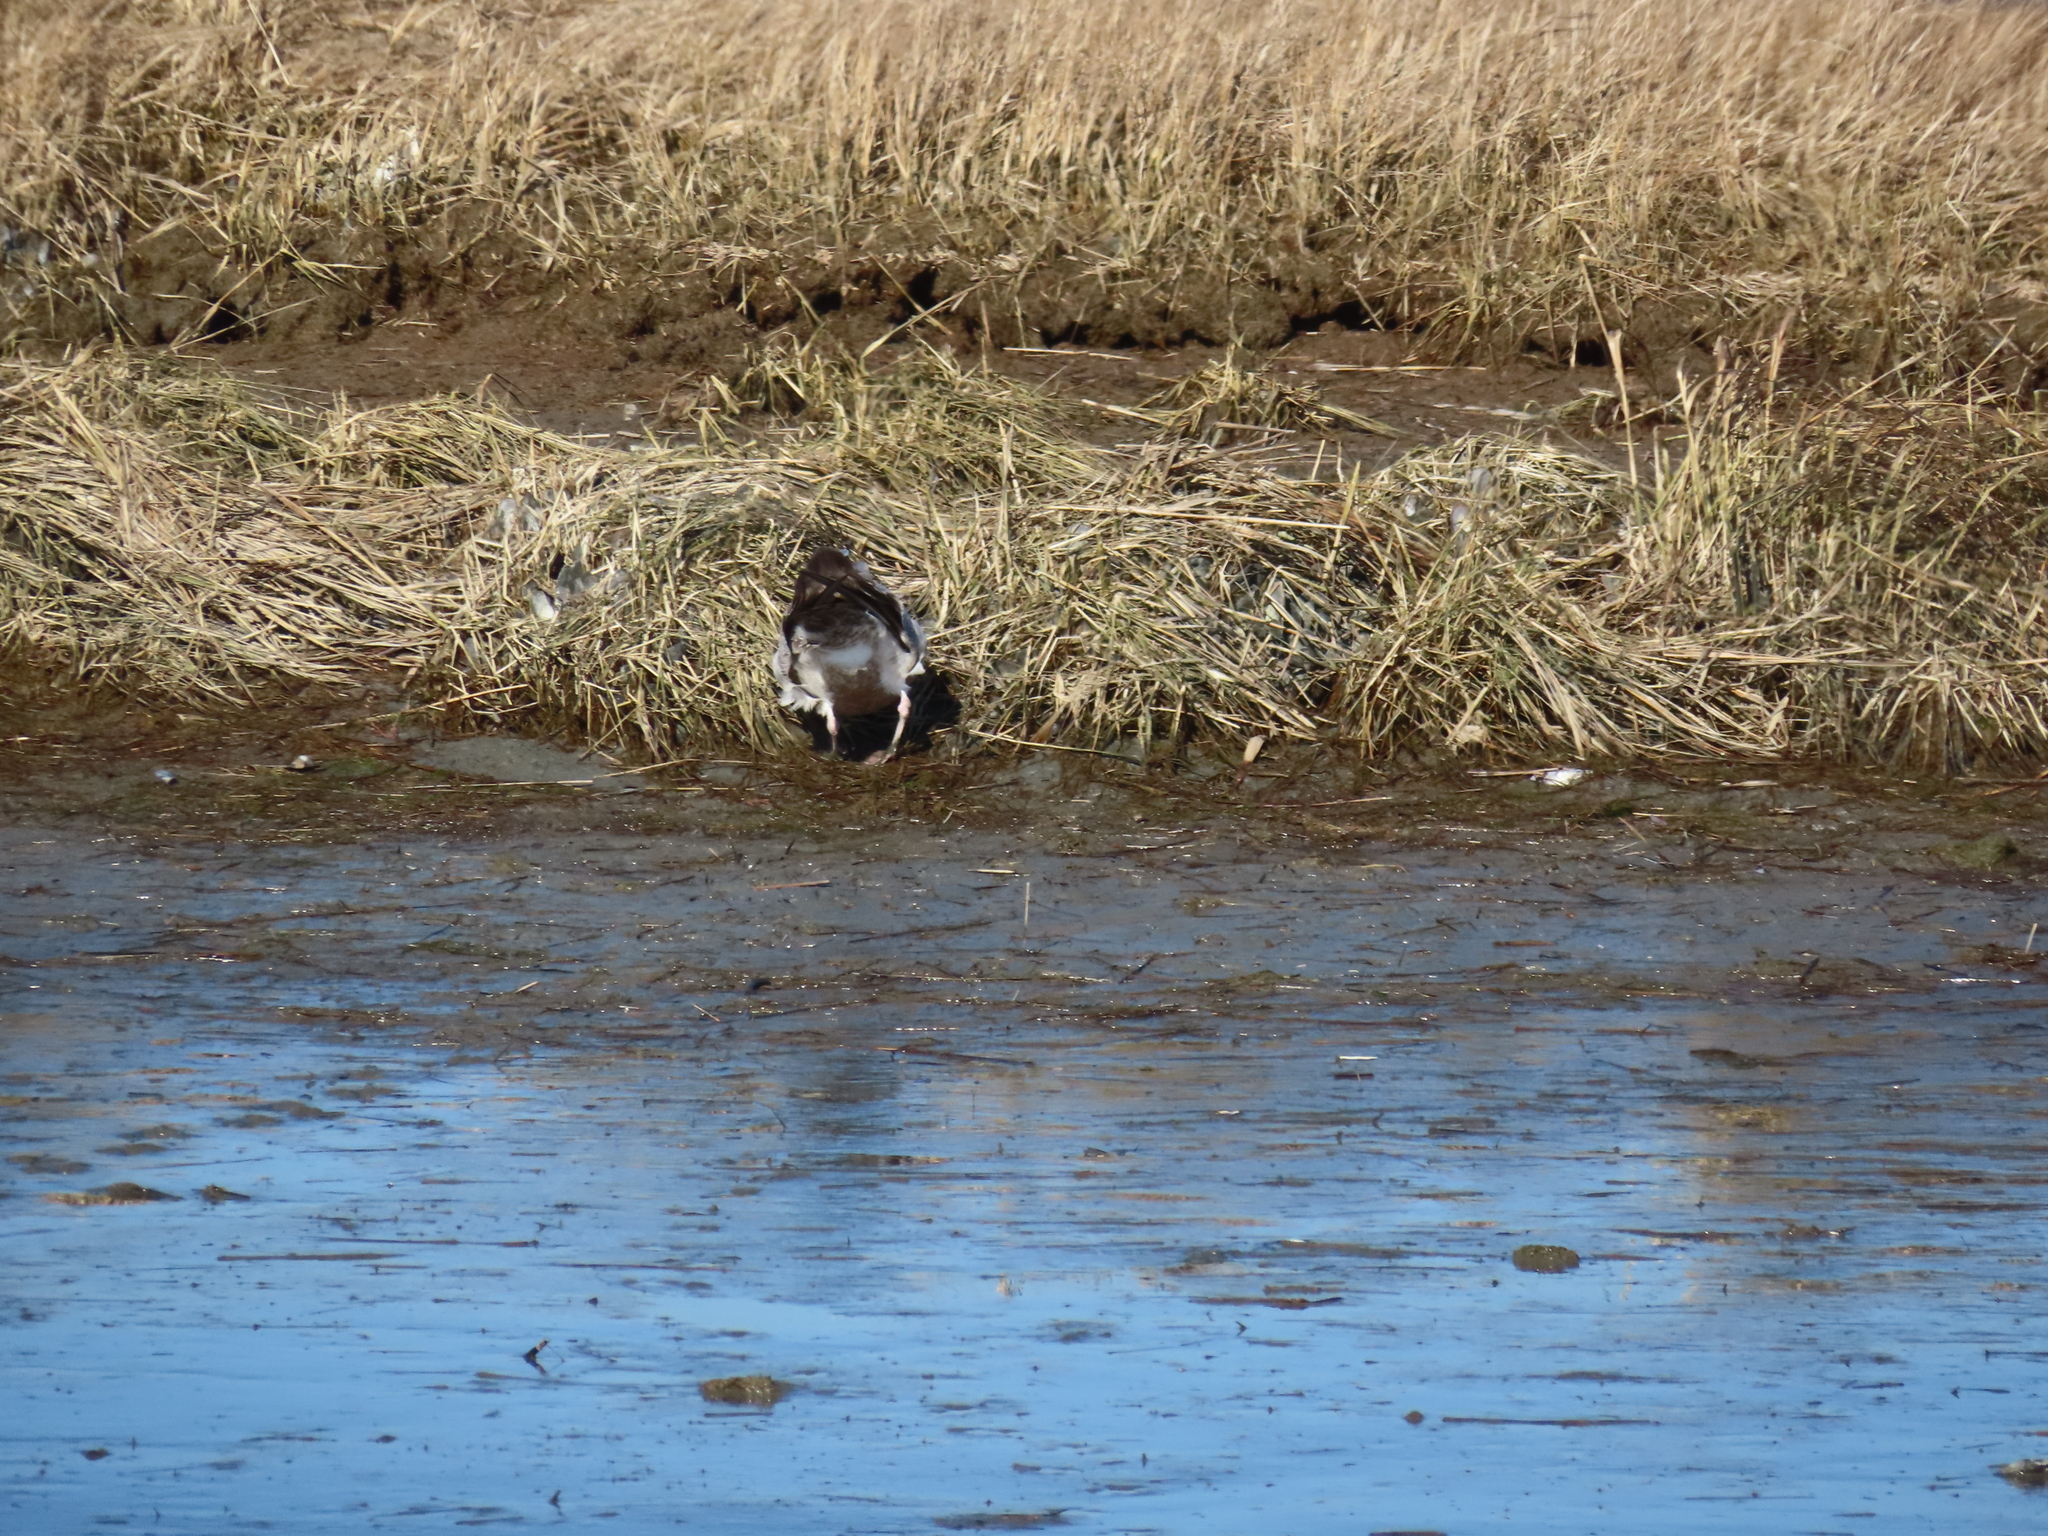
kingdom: Animalia
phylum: Chordata
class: Aves
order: Charadriiformes
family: Laridae
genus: Larus
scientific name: Larus argentatus
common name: Herring gull
